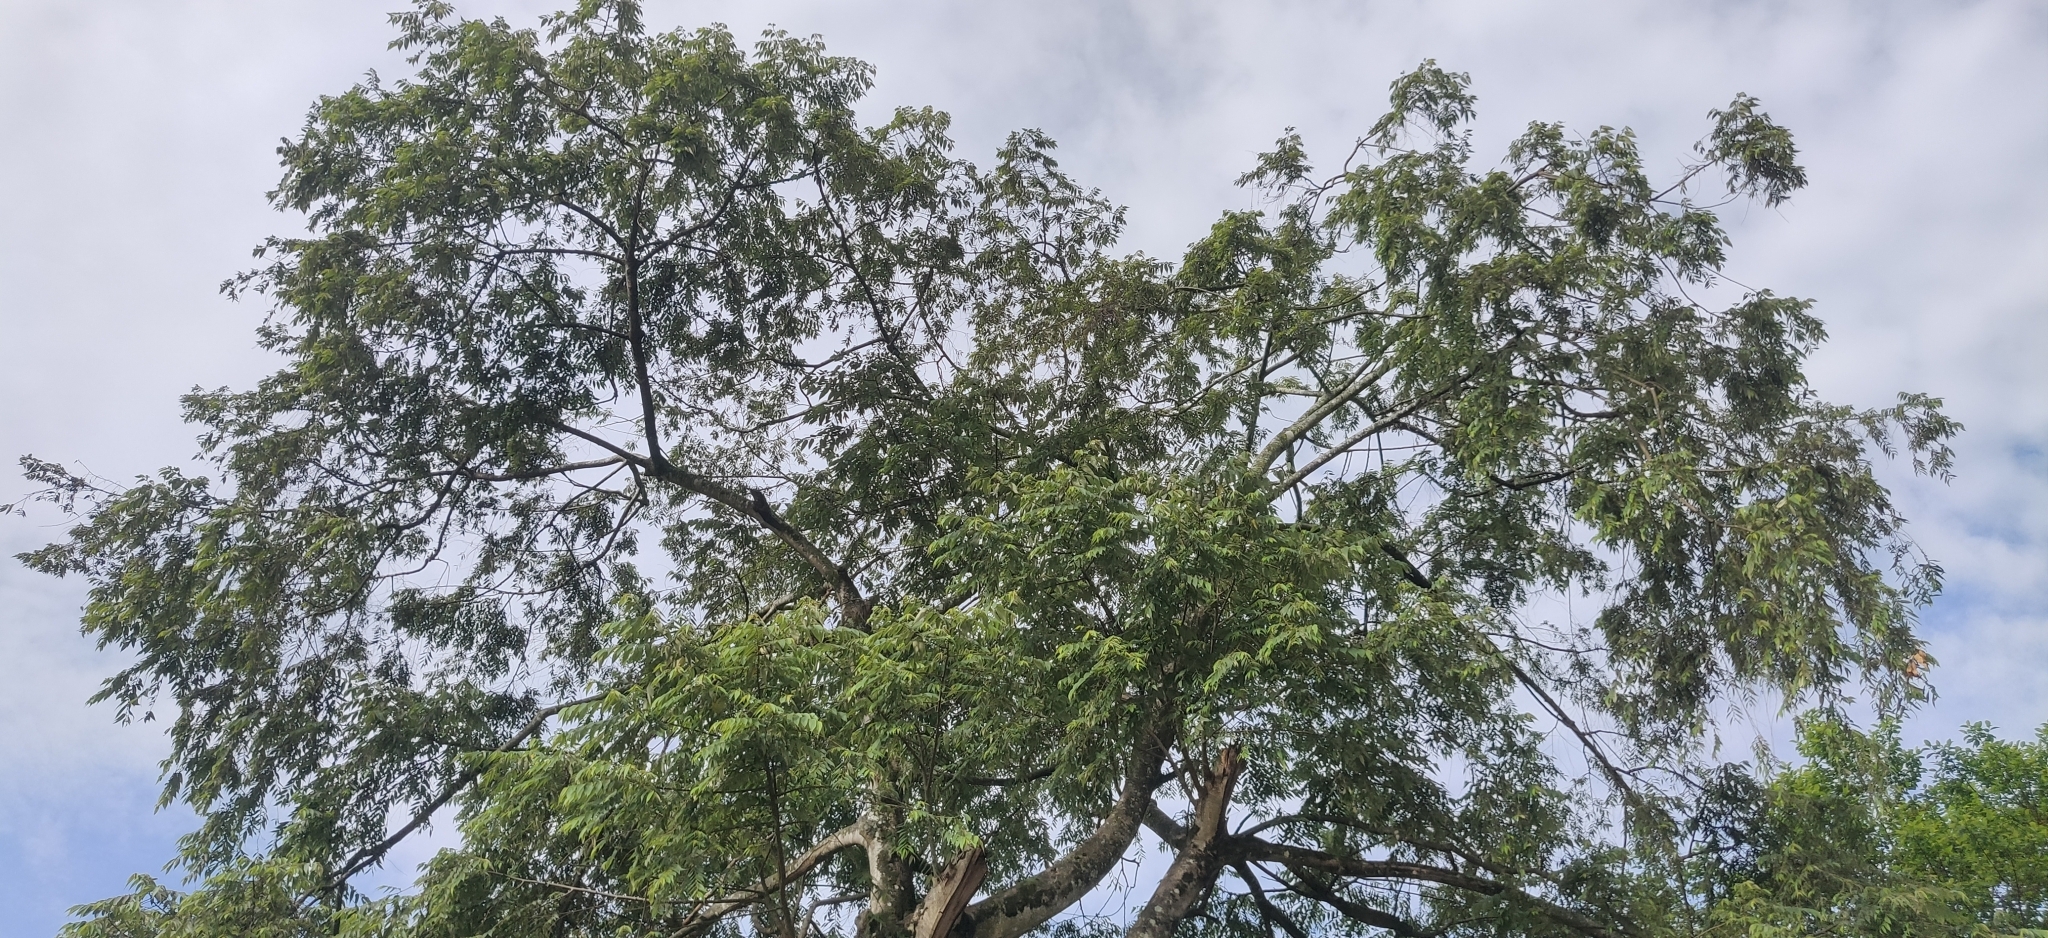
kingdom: Plantae
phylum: Tracheophyta
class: Magnoliopsida
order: Rosales
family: Cannabaceae
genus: Trema
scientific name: Trema orientale
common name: Indian charcoal tree
